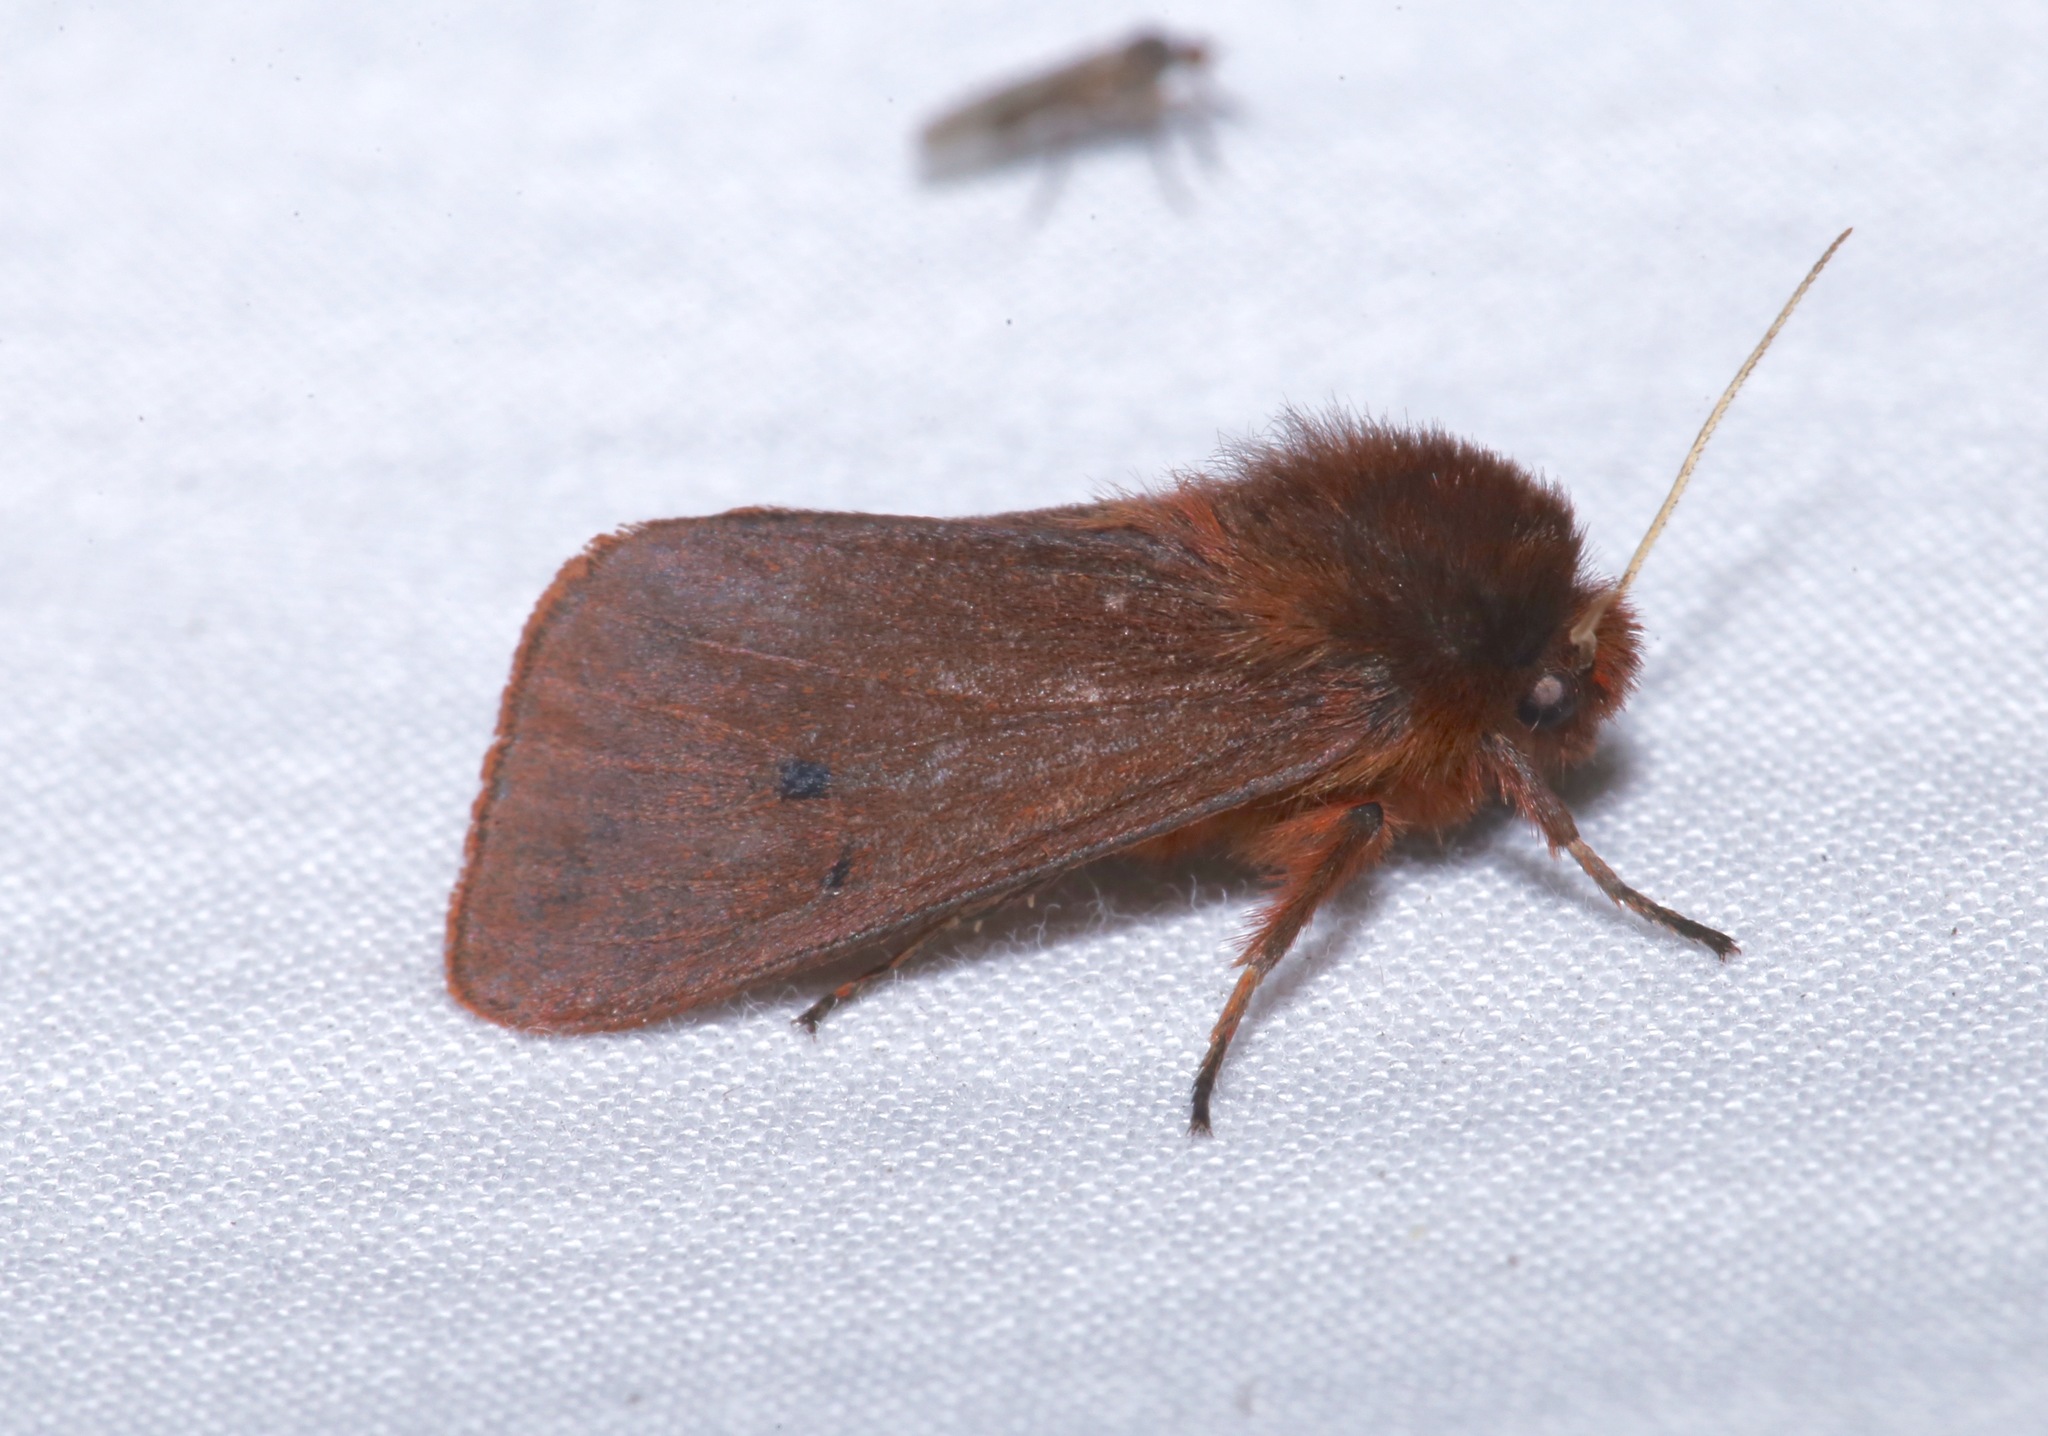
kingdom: Animalia
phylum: Arthropoda
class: Insecta
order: Lepidoptera
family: Erebidae
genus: Phragmatobia
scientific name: Phragmatobia fuliginosa
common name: Ruby tiger
